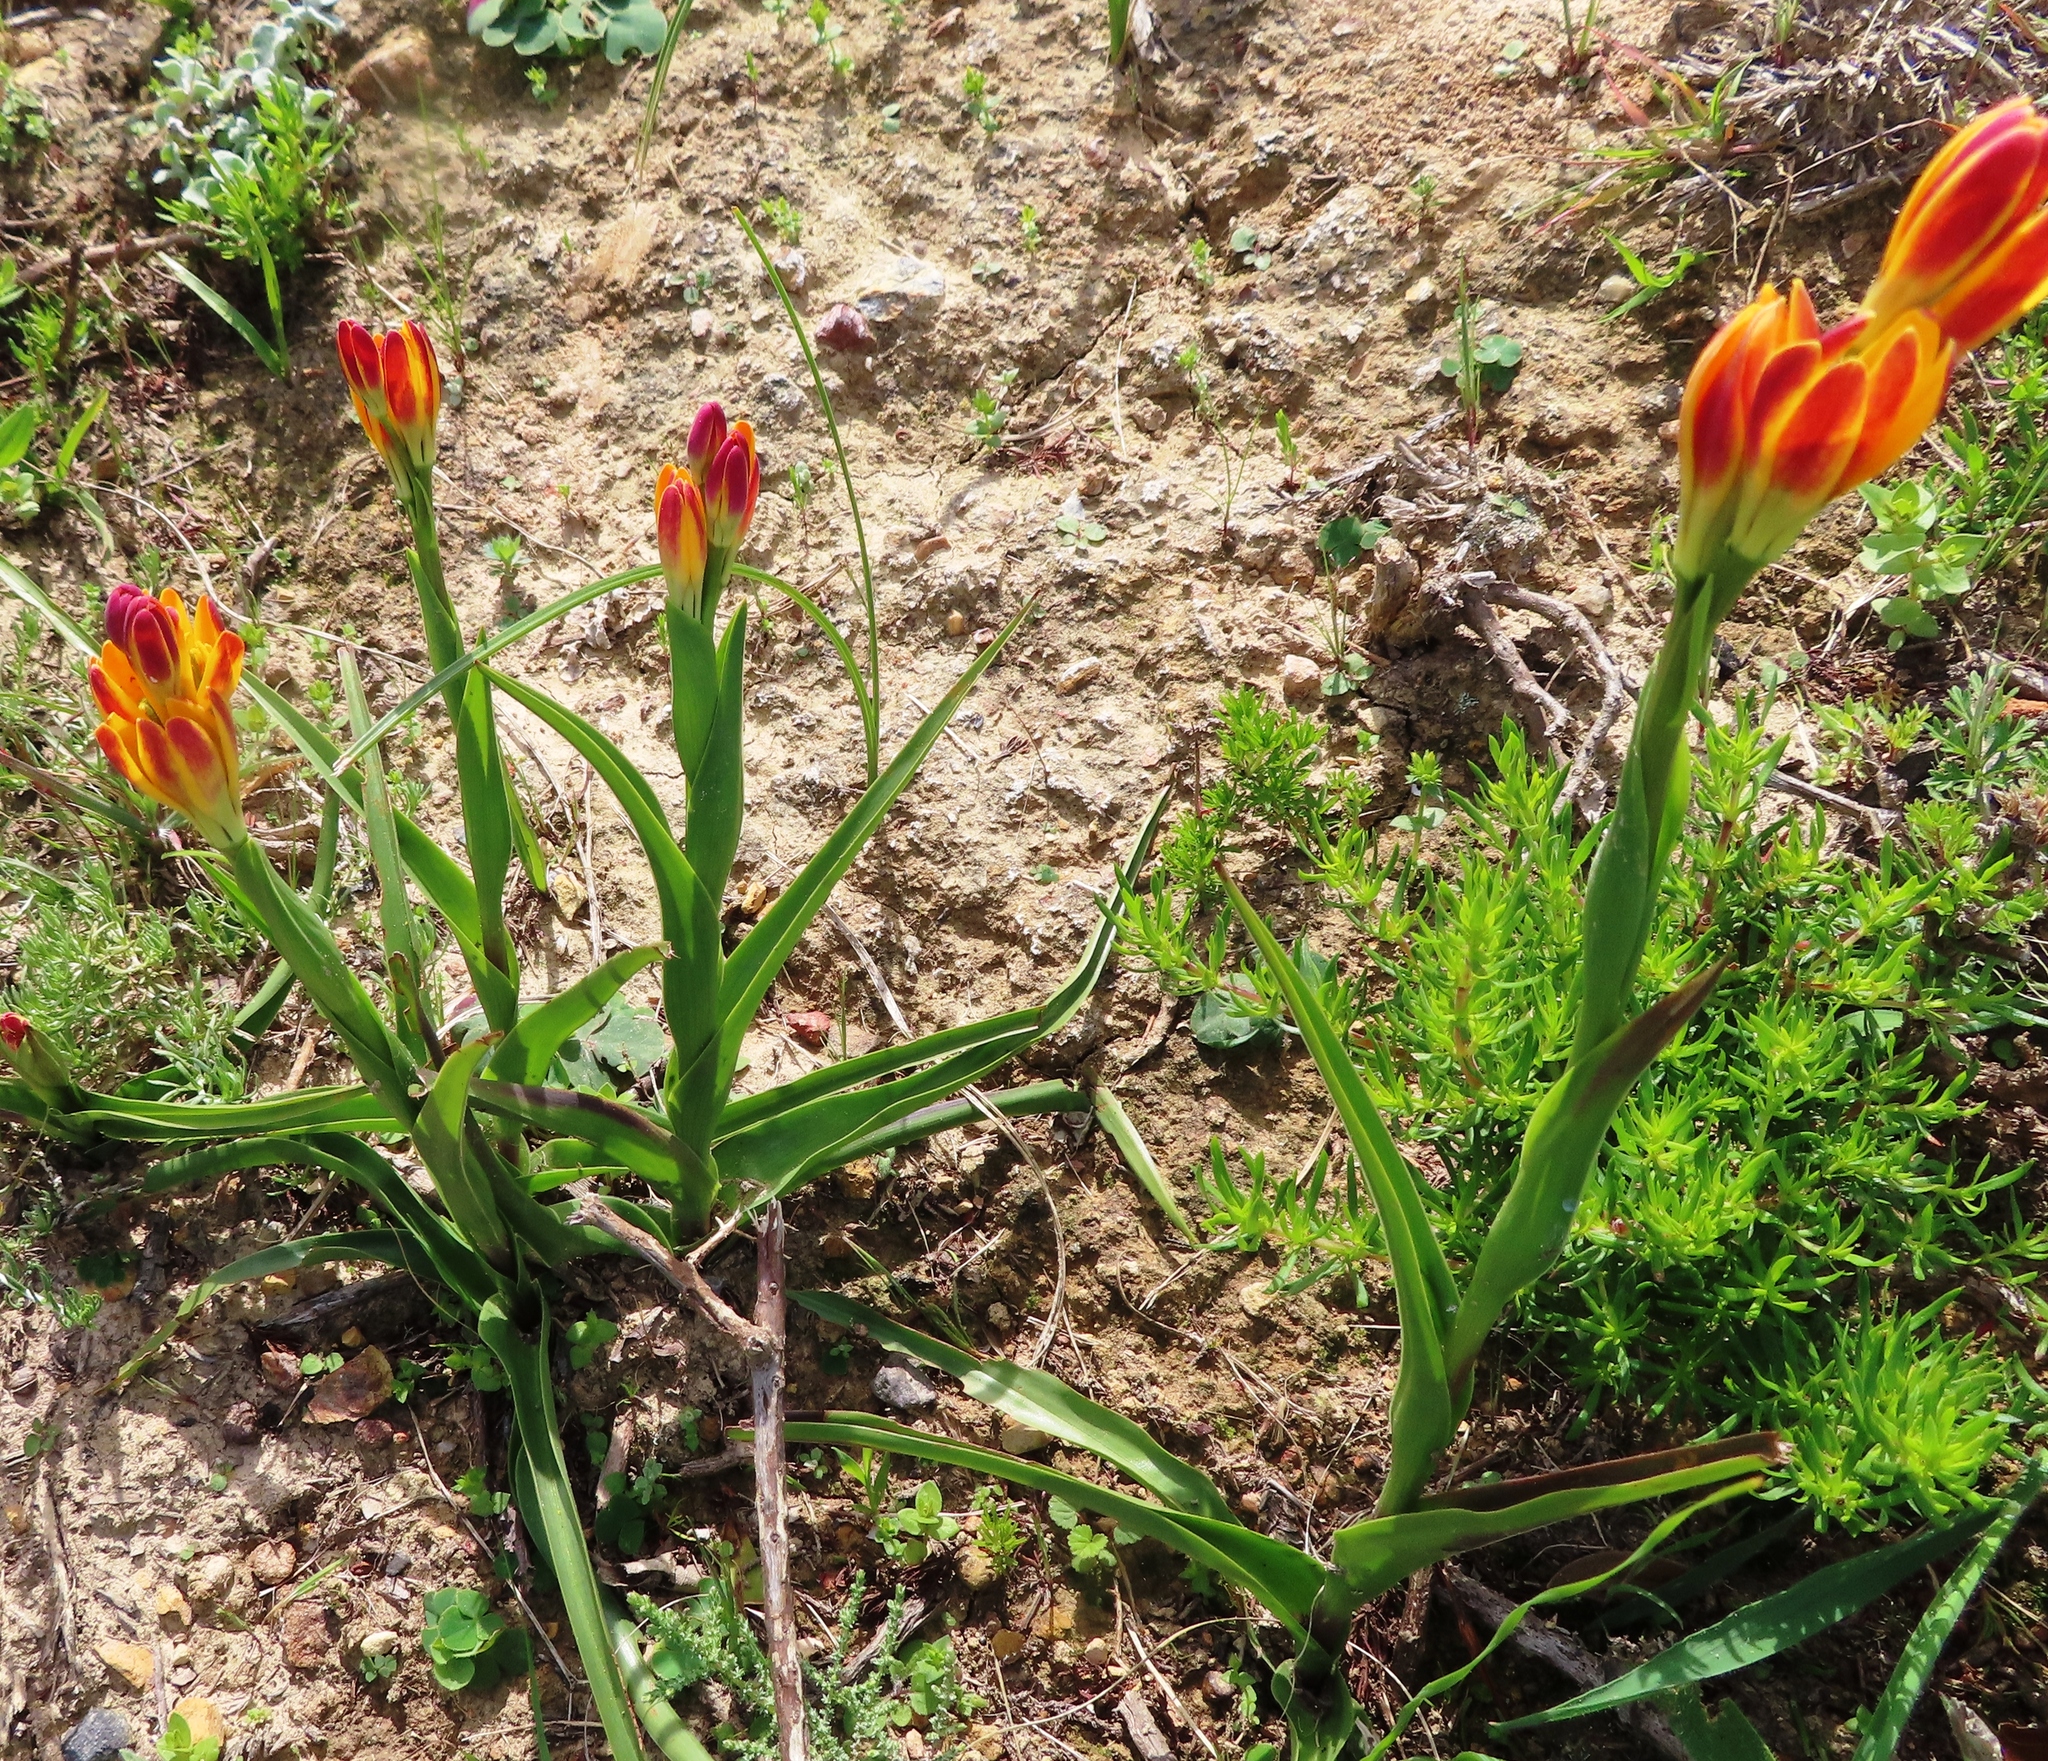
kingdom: Plantae
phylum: Tracheophyta
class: Liliopsida
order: Liliales
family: Colchicaceae
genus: Baeometra
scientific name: Baeometra uniflora
